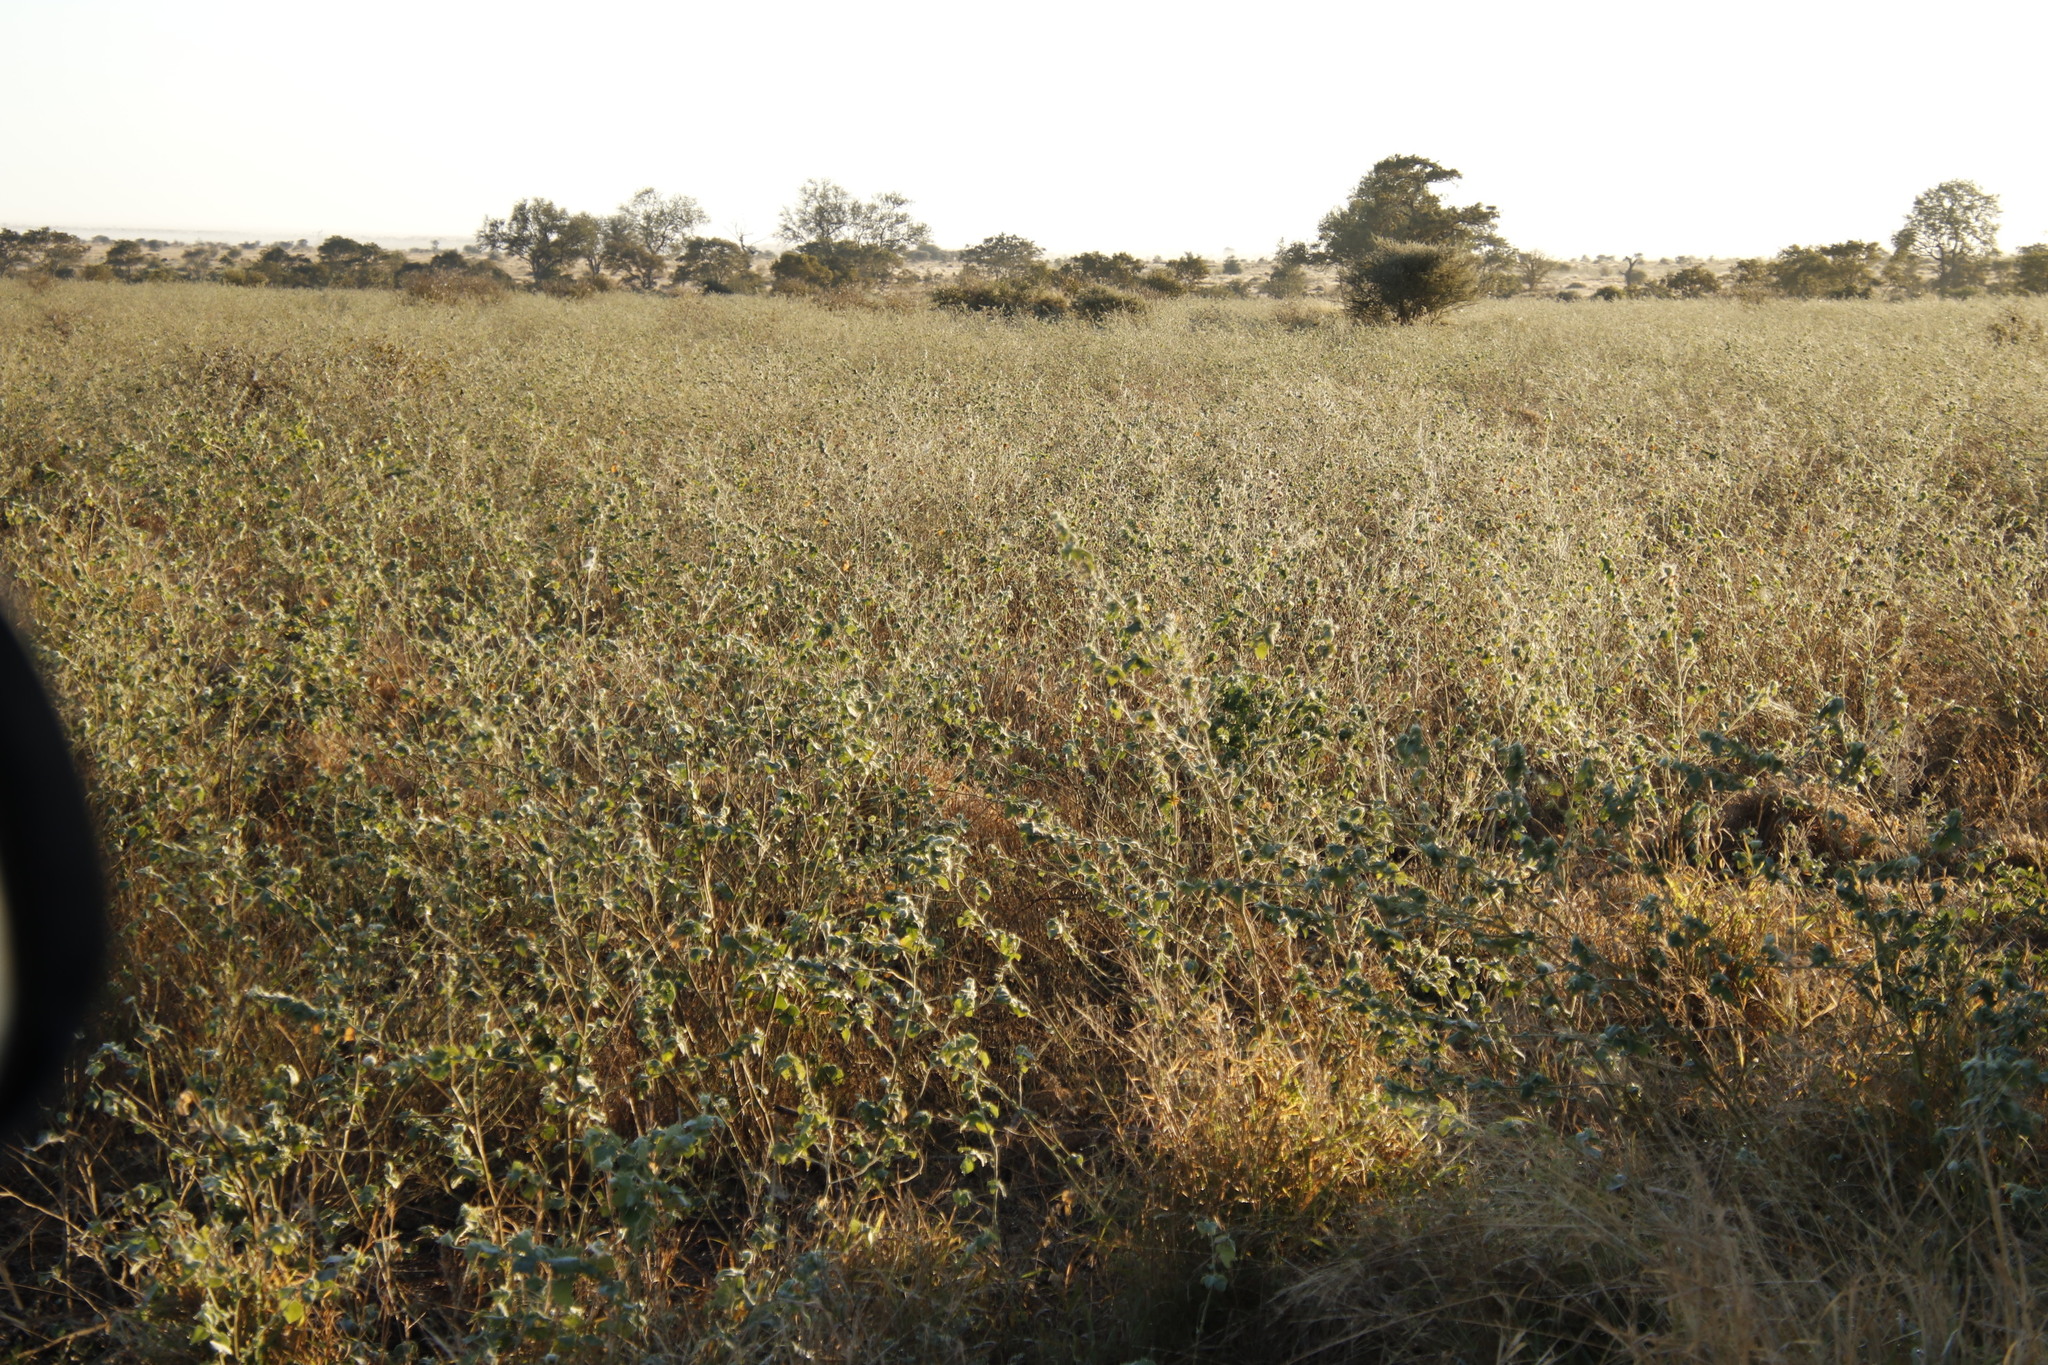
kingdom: Plantae
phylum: Tracheophyta
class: Magnoliopsida
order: Malvales
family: Malvaceae
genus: Abutilon
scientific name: Abutilon guineense
